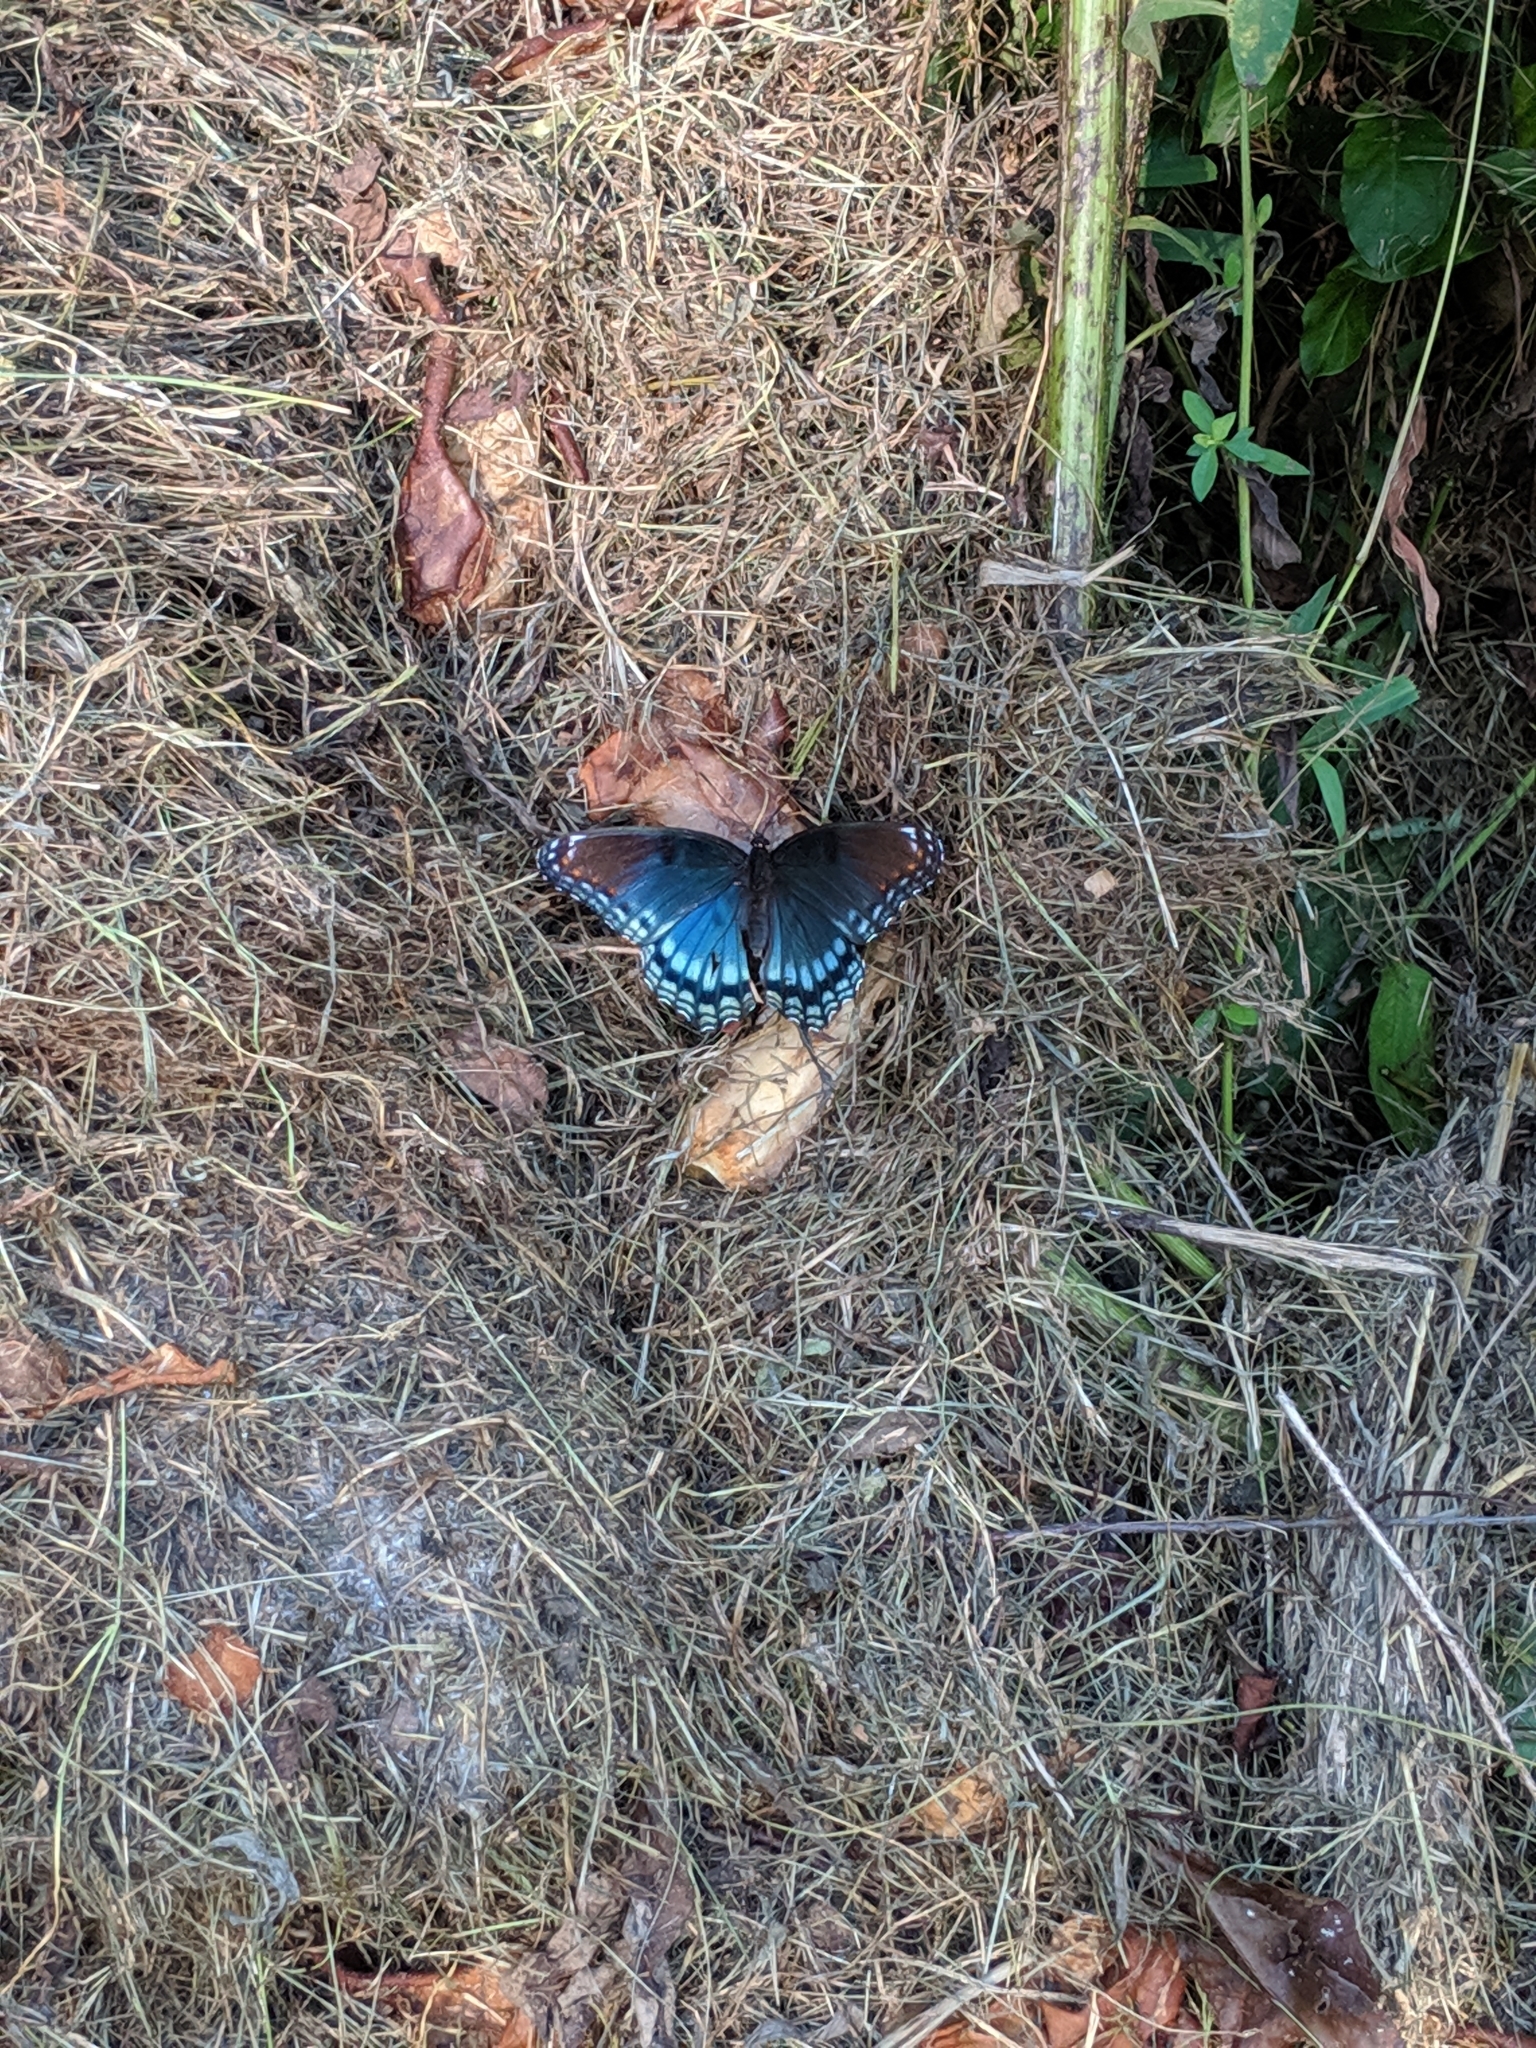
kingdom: Animalia
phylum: Arthropoda
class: Insecta
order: Lepidoptera
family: Nymphalidae
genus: Limenitis
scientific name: Limenitis arthemis
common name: Red-spotted admiral
